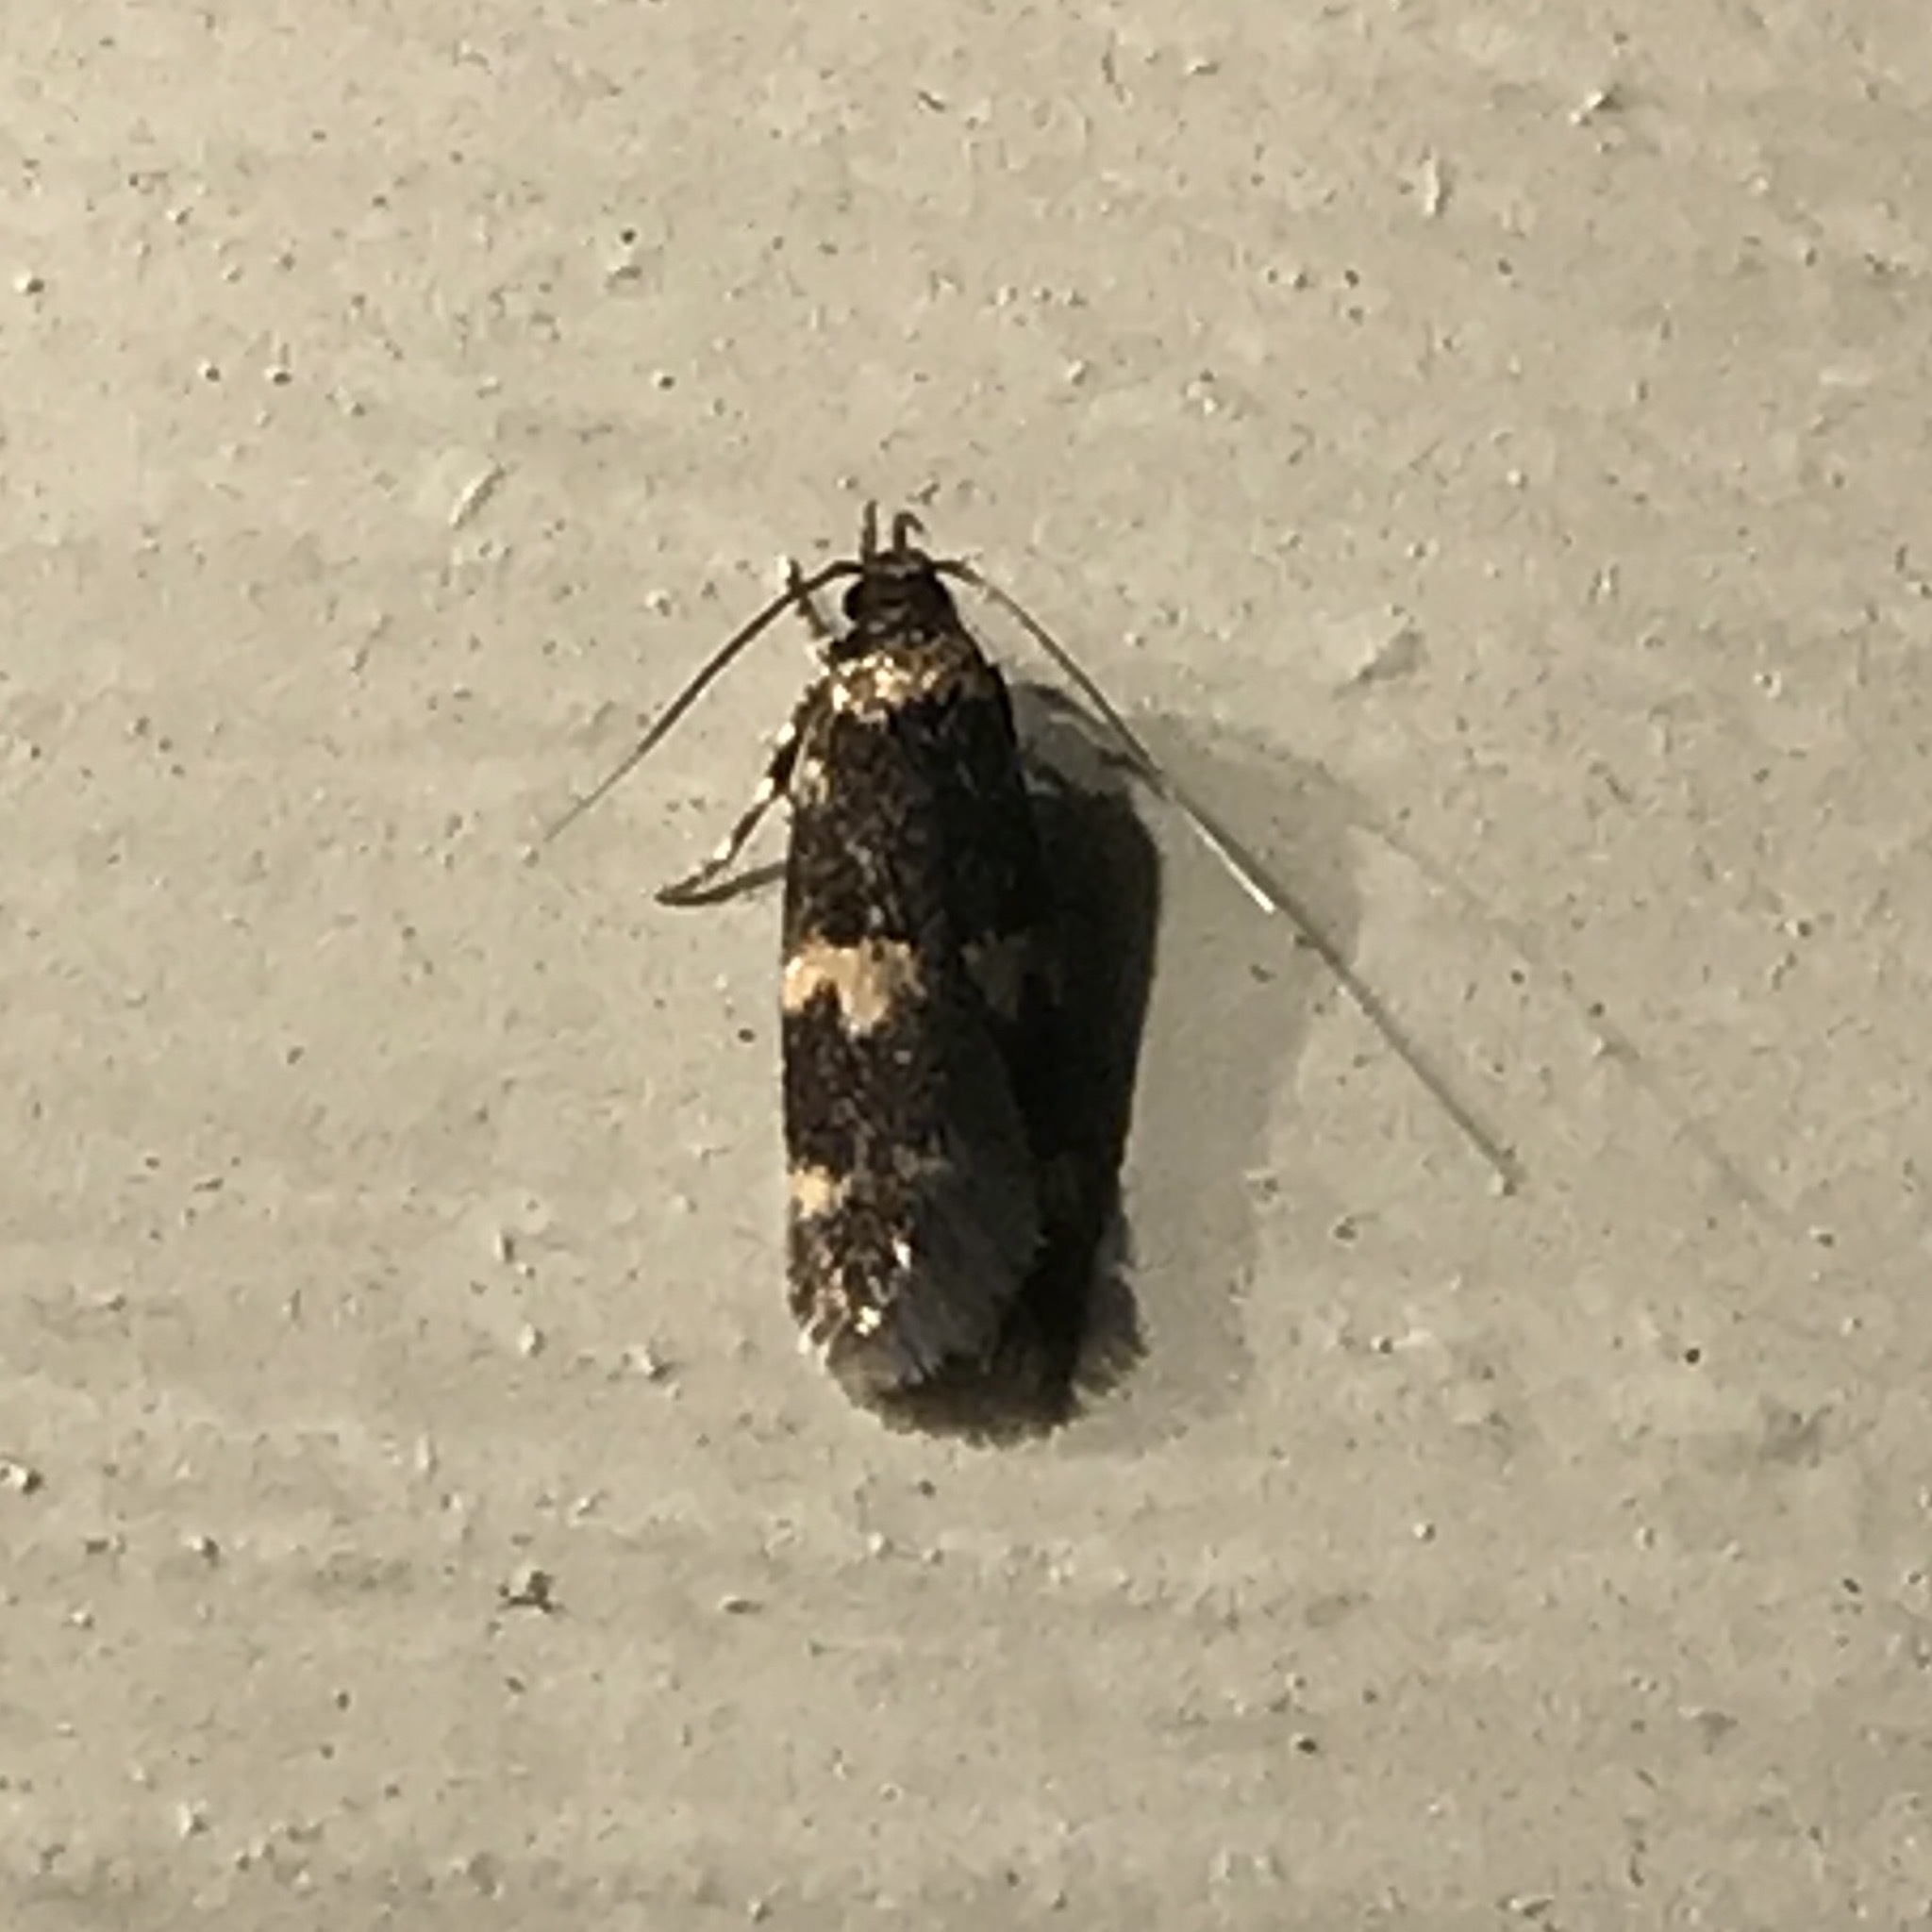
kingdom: Animalia
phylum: Arthropoda
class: Insecta
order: Lepidoptera
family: Autostichidae
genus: Oegoconia
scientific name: Oegoconia
